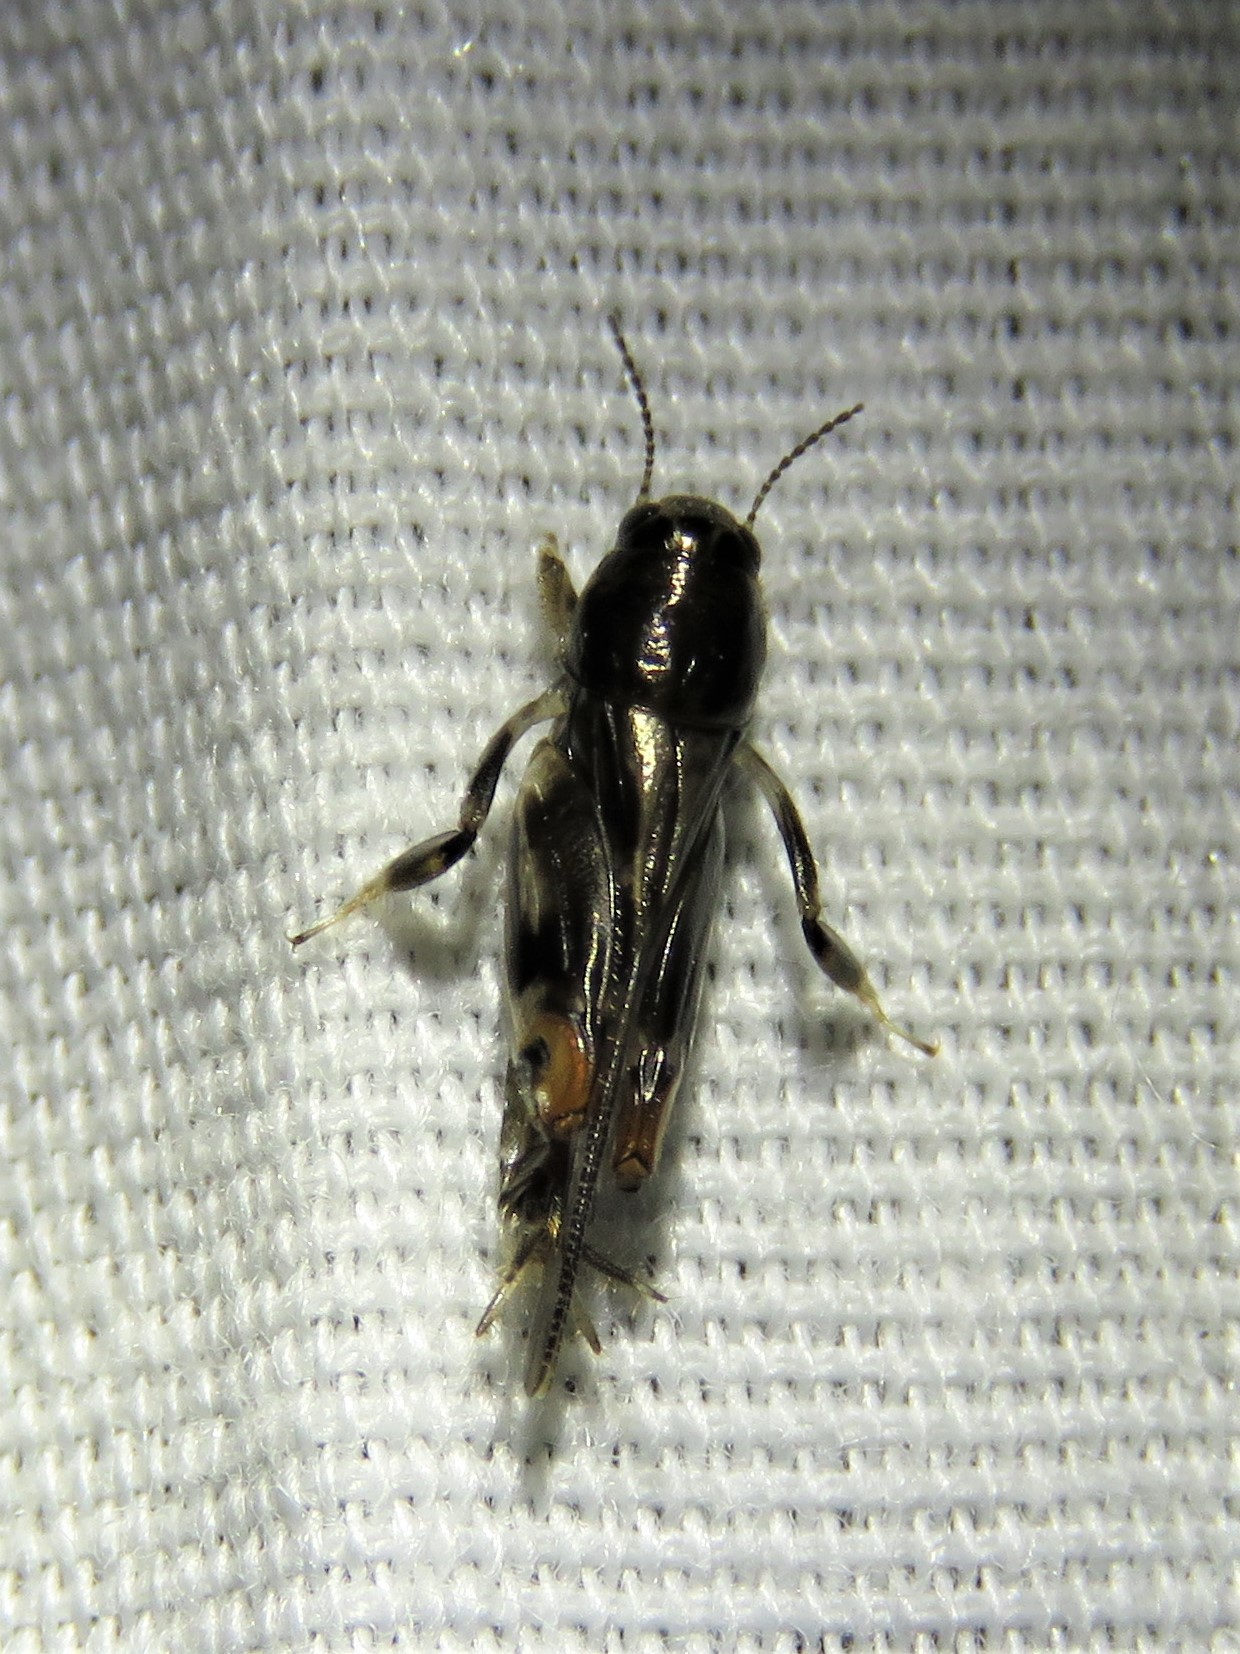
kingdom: Animalia
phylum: Arthropoda
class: Insecta
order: Orthoptera
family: Tridactylidae
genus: Neotridactylus
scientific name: Neotridactylus apicialis
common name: Larger pygmy locust
